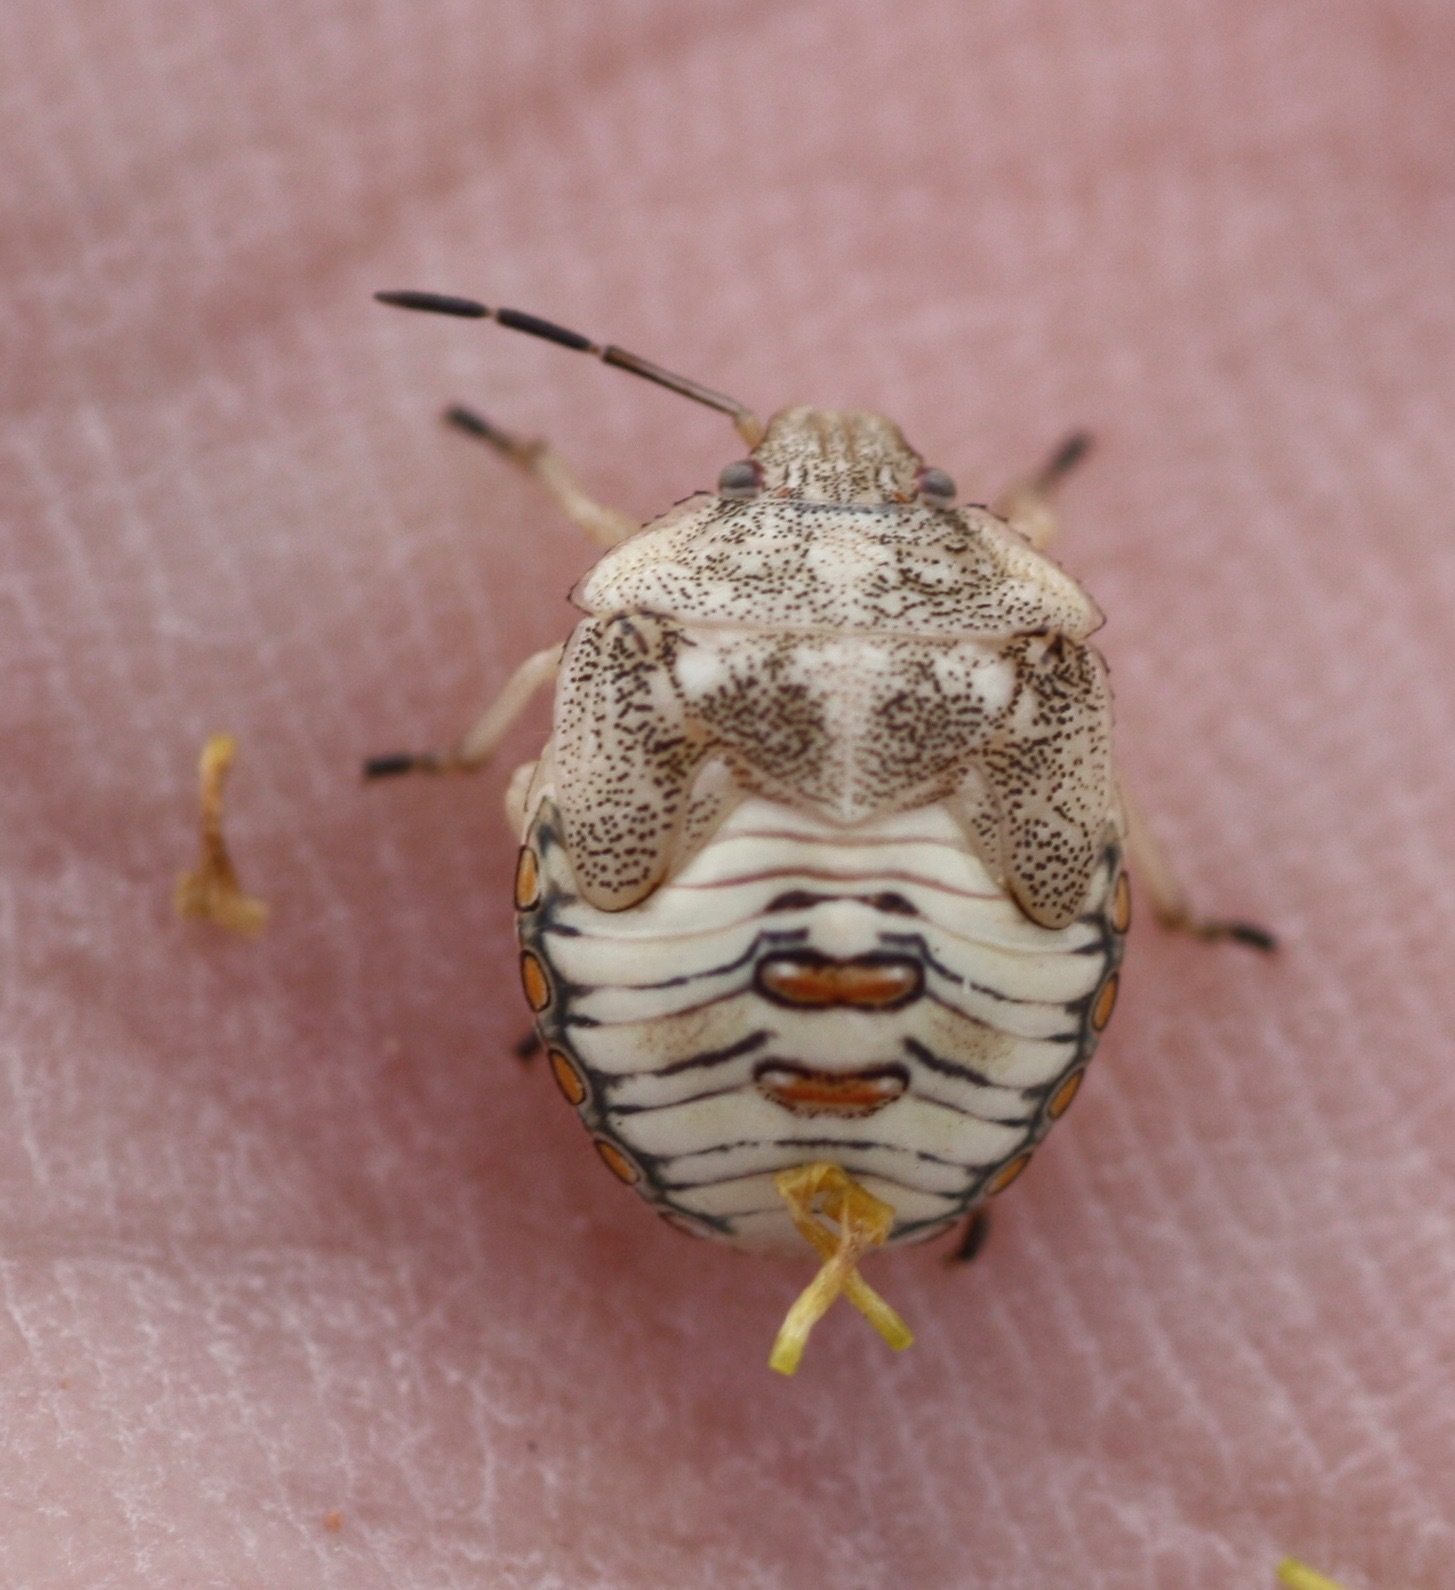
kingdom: Animalia
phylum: Arthropoda
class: Insecta
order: Hemiptera
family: Pentatomidae
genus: Thyanta
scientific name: Thyanta accerra
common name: Stink bug
